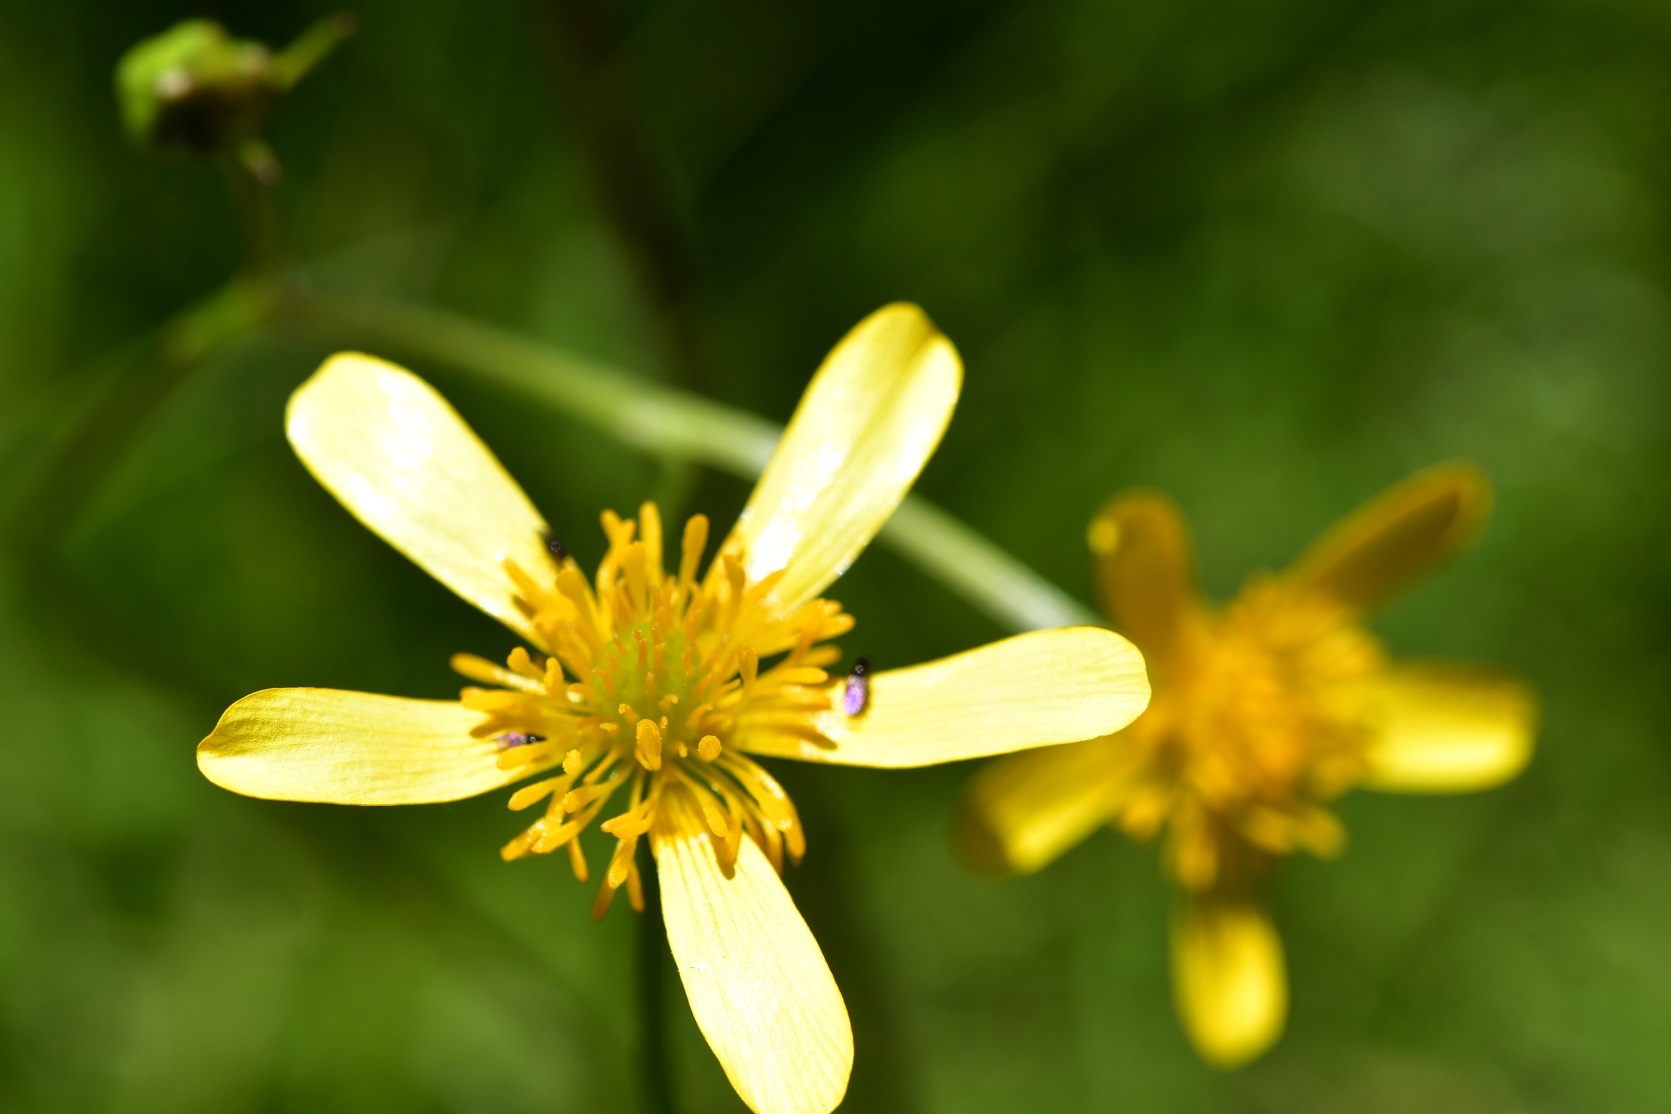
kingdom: Plantae
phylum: Tracheophyta
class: Magnoliopsida
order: Ranunculales
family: Ranunculaceae
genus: Ranunculus
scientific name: Ranunculus petiolaris
